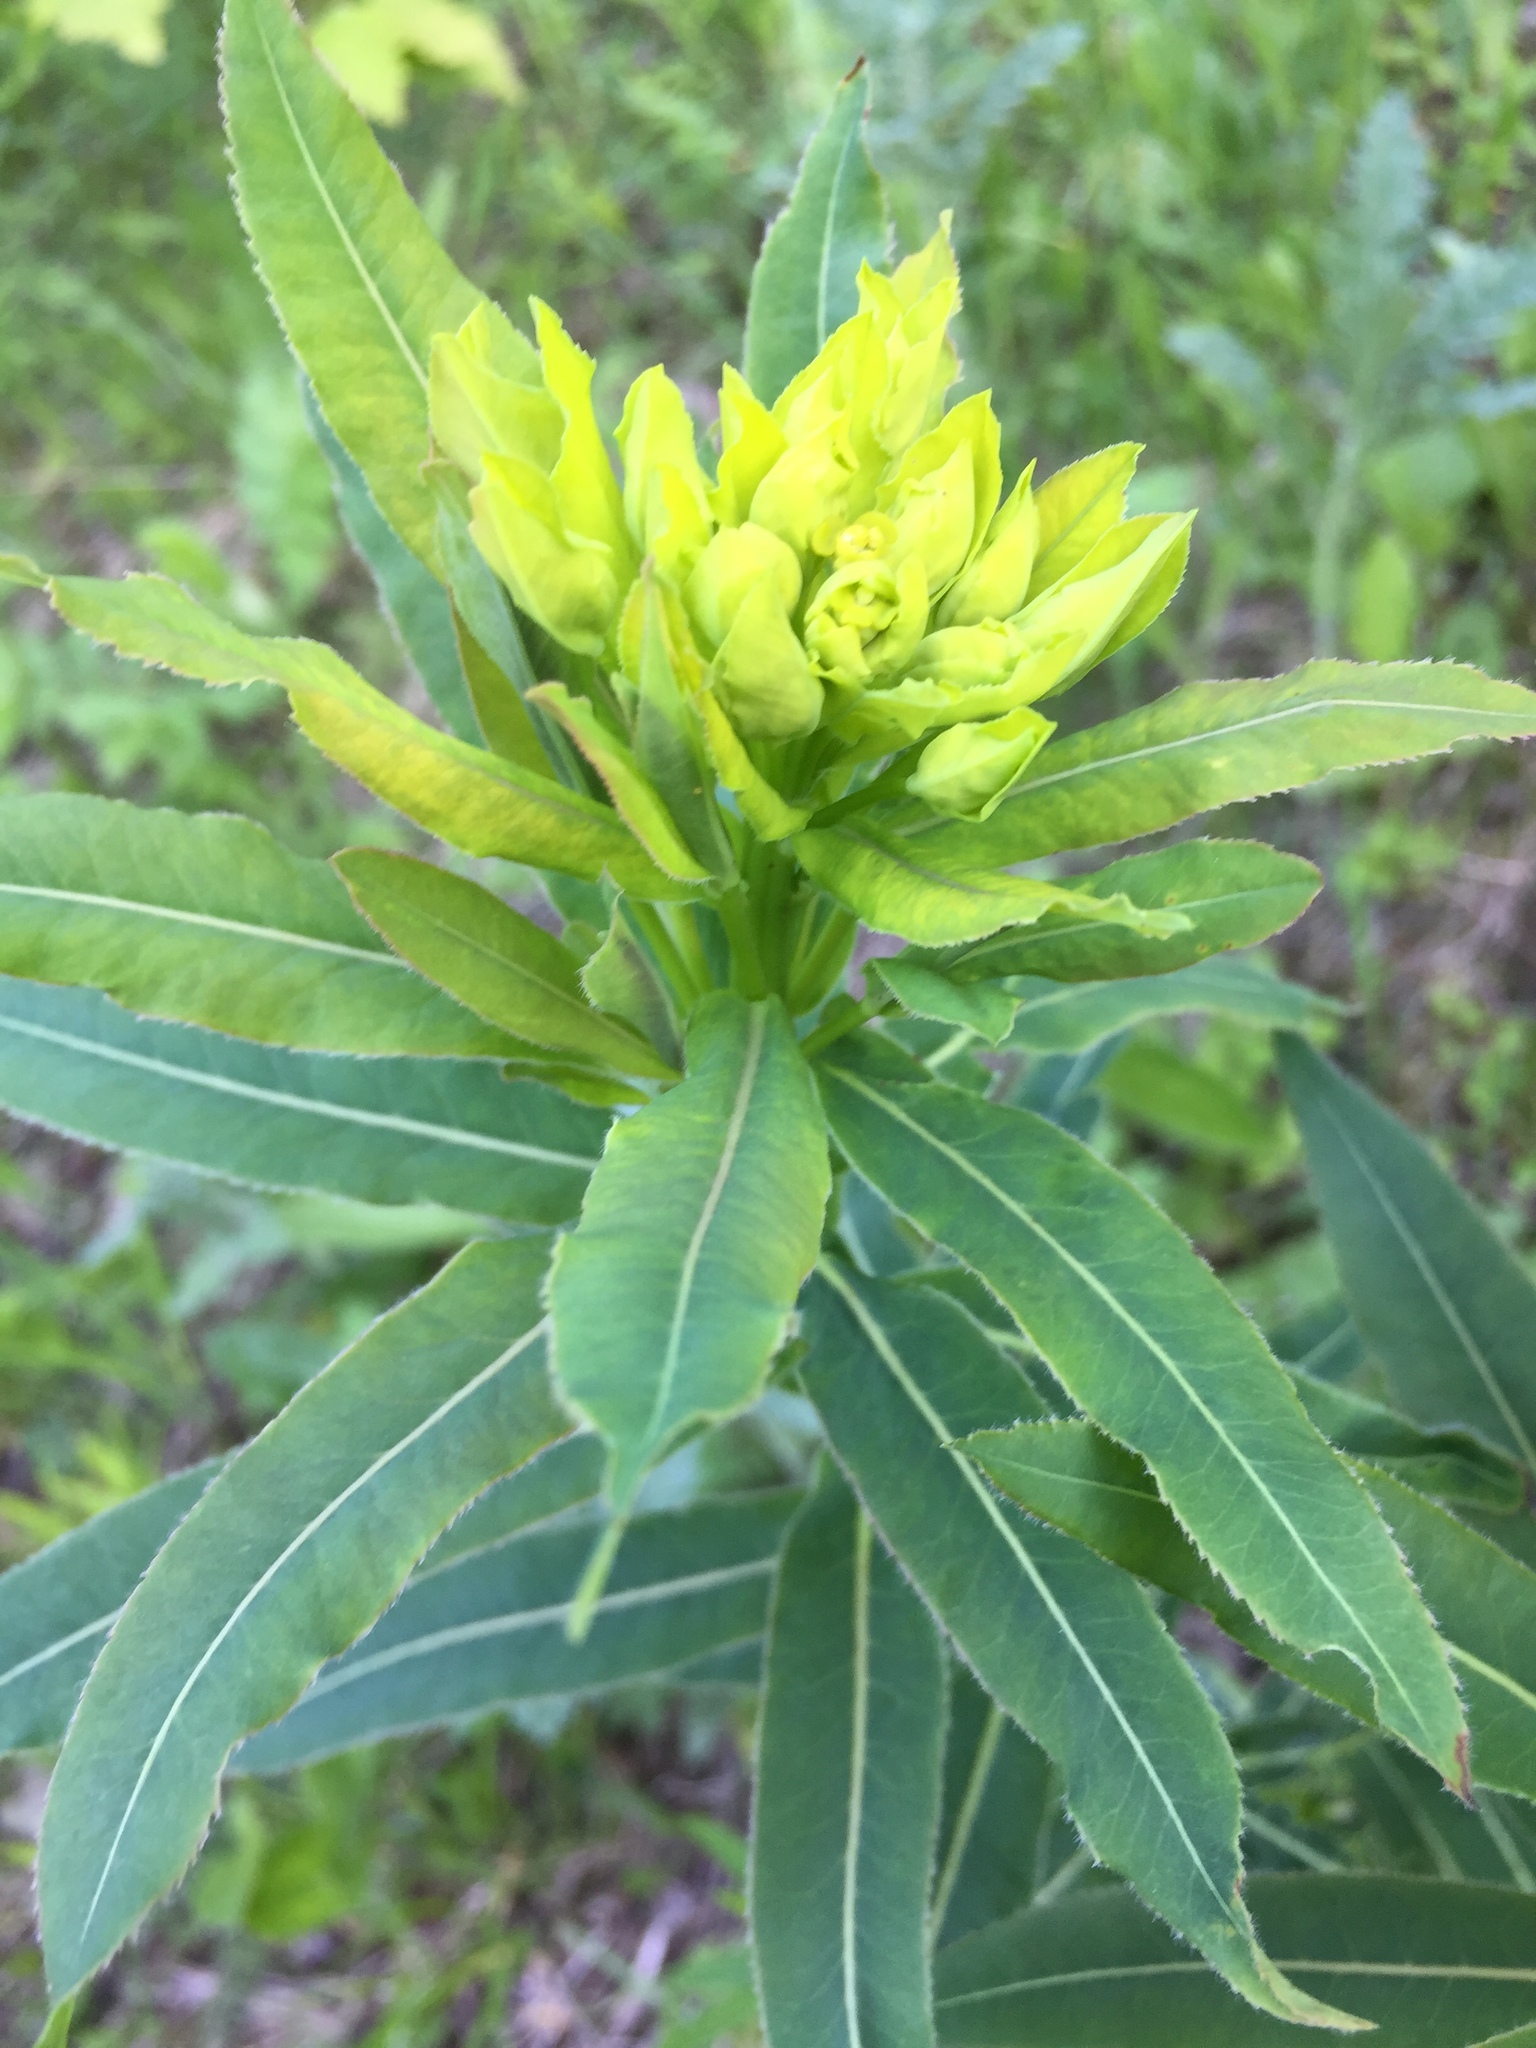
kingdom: Plantae
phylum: Tracheophyta
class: Magnoliopsida
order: Malpighiales
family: Euphorbiaceae
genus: Euphorbia
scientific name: Euphorbia virgata
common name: Leafy spurge
